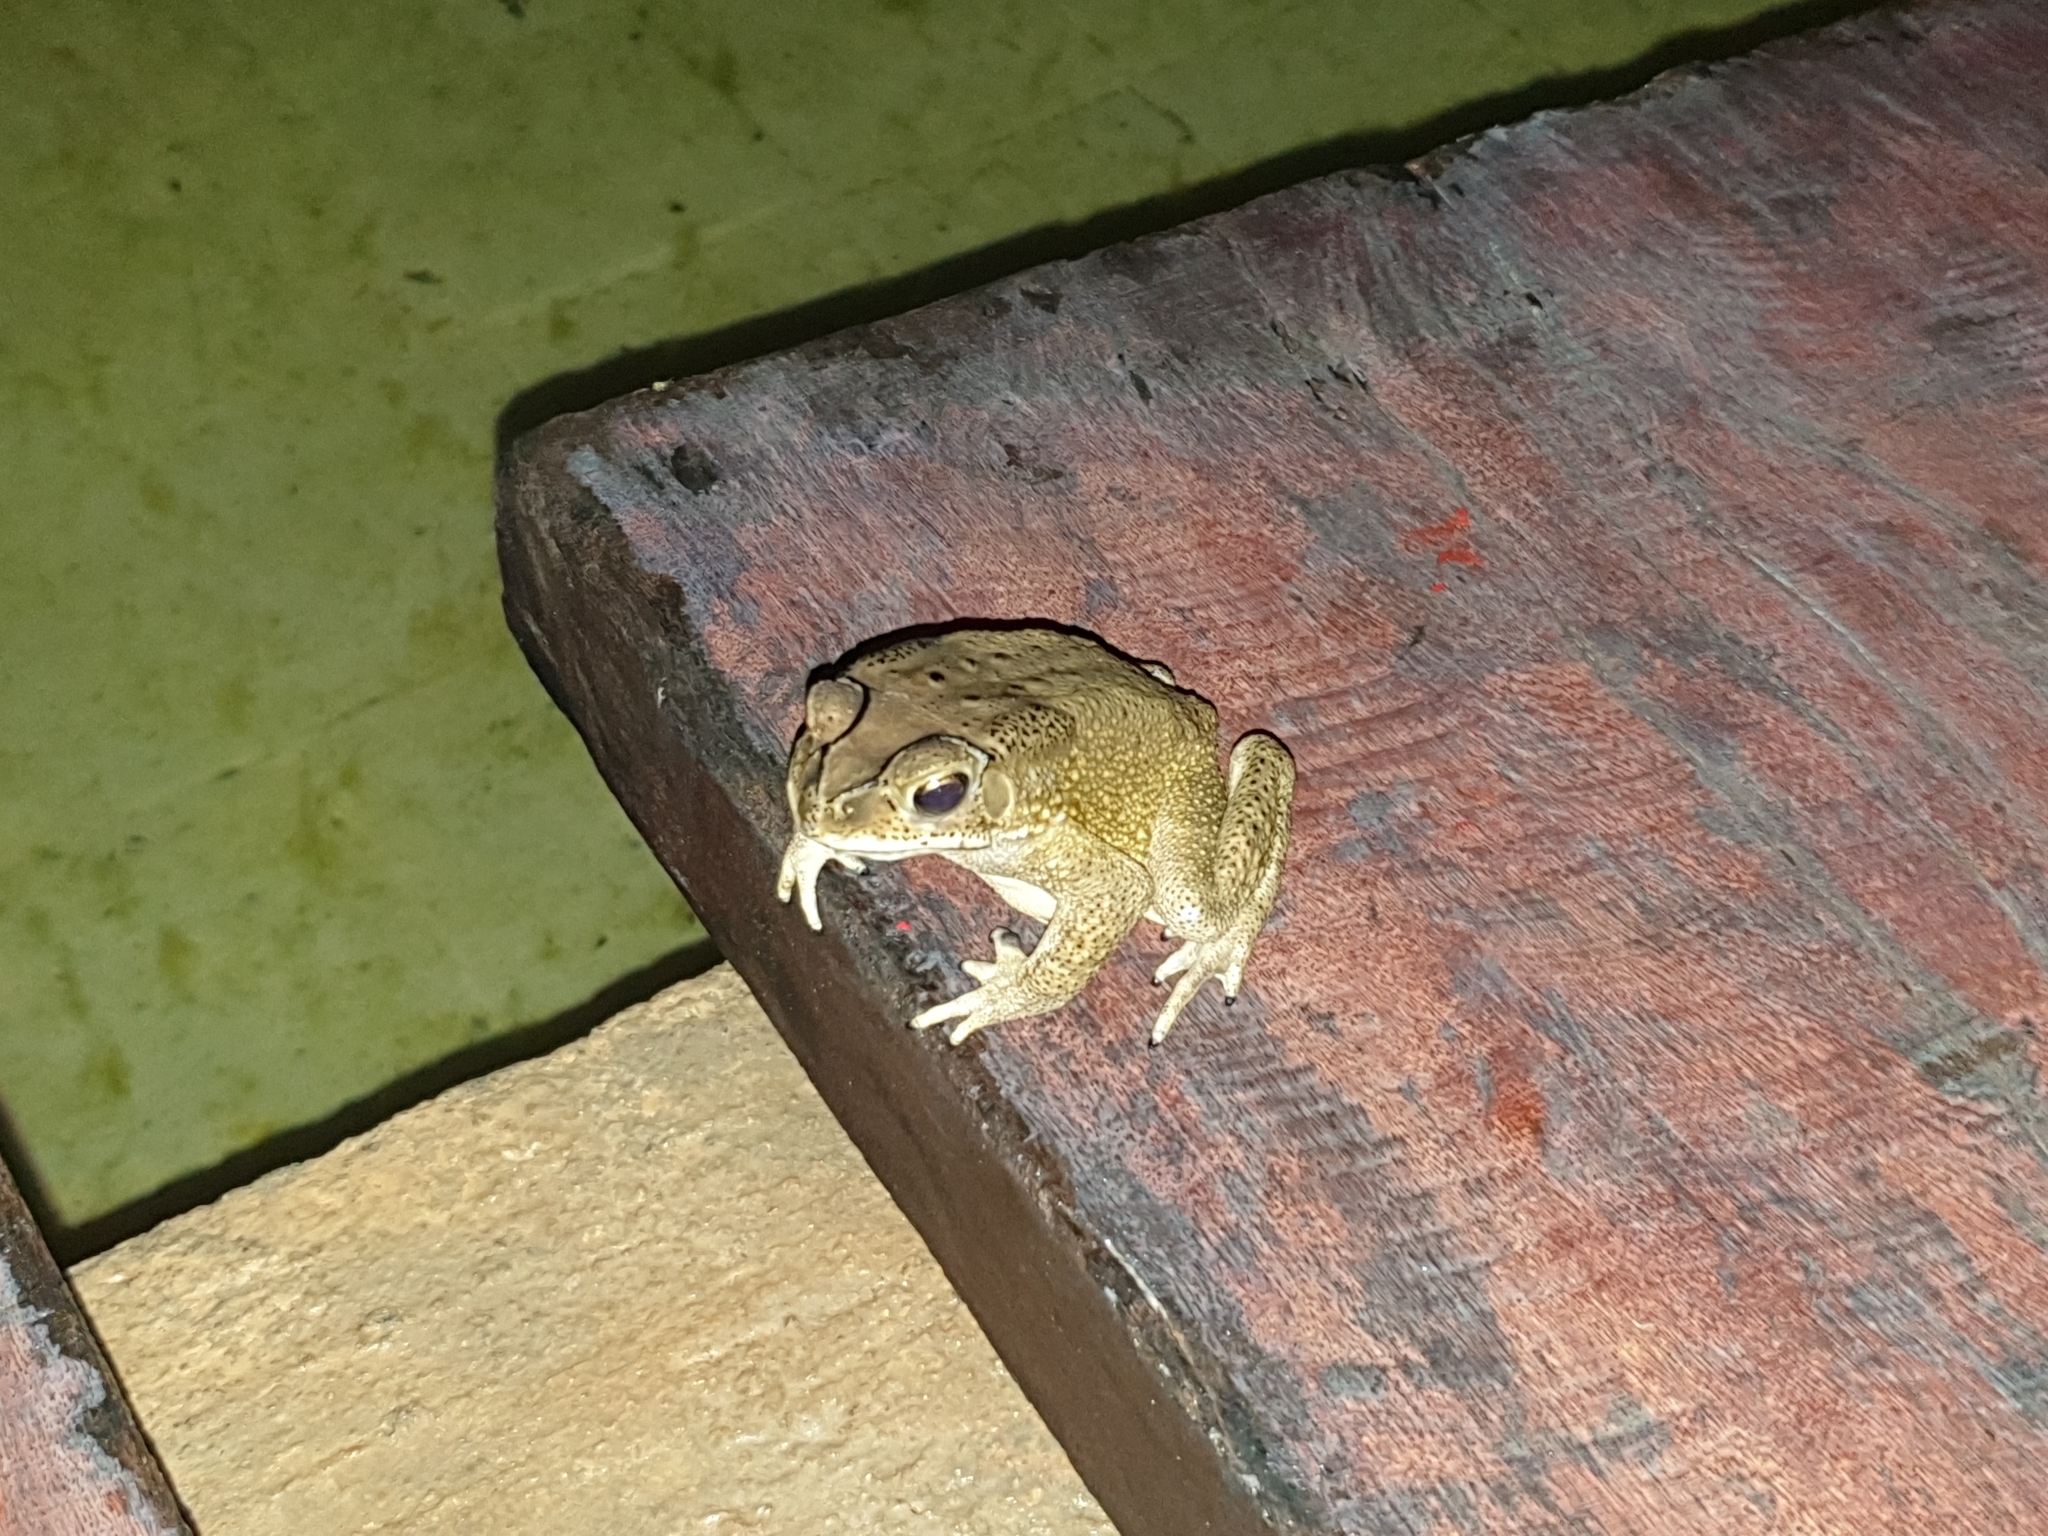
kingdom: Animalia
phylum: Chordata
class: Amphibia
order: Anura
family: Bufonidae
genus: Duttaphrynus
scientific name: Duttaphrynus melanostictus
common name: Common sunda toad
